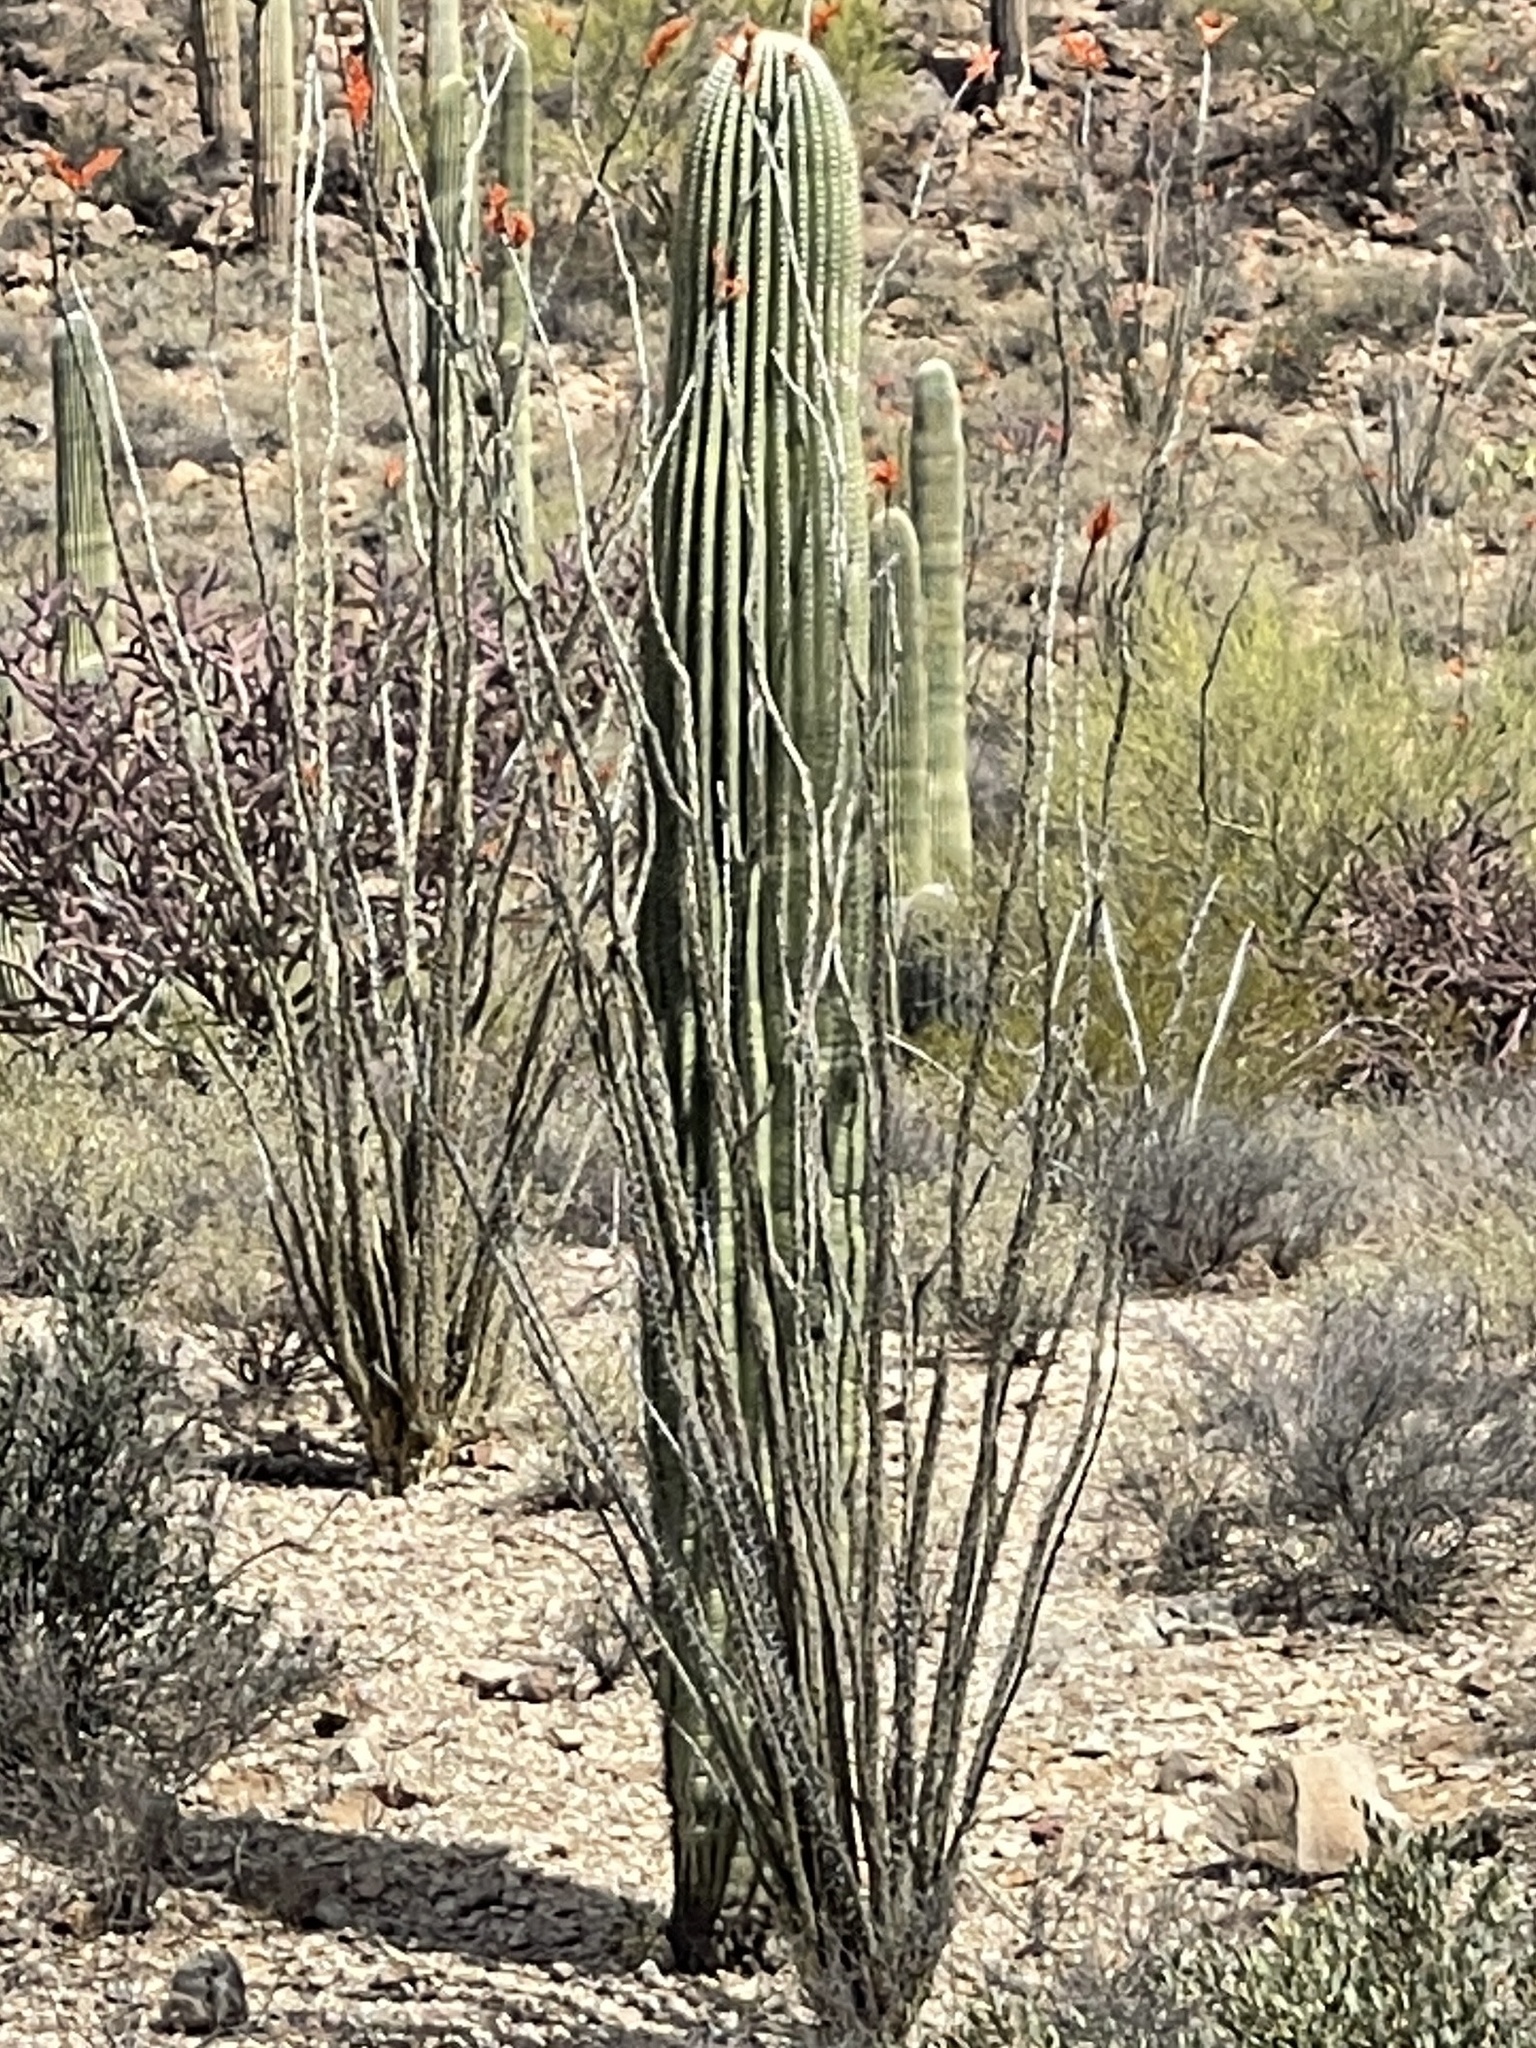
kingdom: Plantae
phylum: Tracheophyta
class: Magnoliopsida
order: Caryophyllales
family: Cactaceae
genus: Carnegiea
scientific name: Carnegiea gigantea
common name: Saguaro
